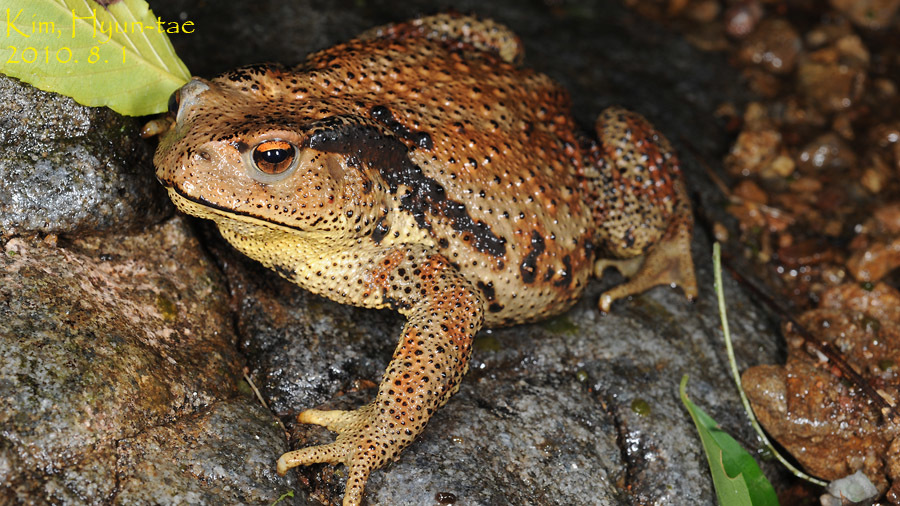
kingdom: Animalia
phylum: Chordata
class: Amphibia
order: Anura
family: Bufonidae
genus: Bufo
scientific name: Bufo gargarizans
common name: Asiatic toad
